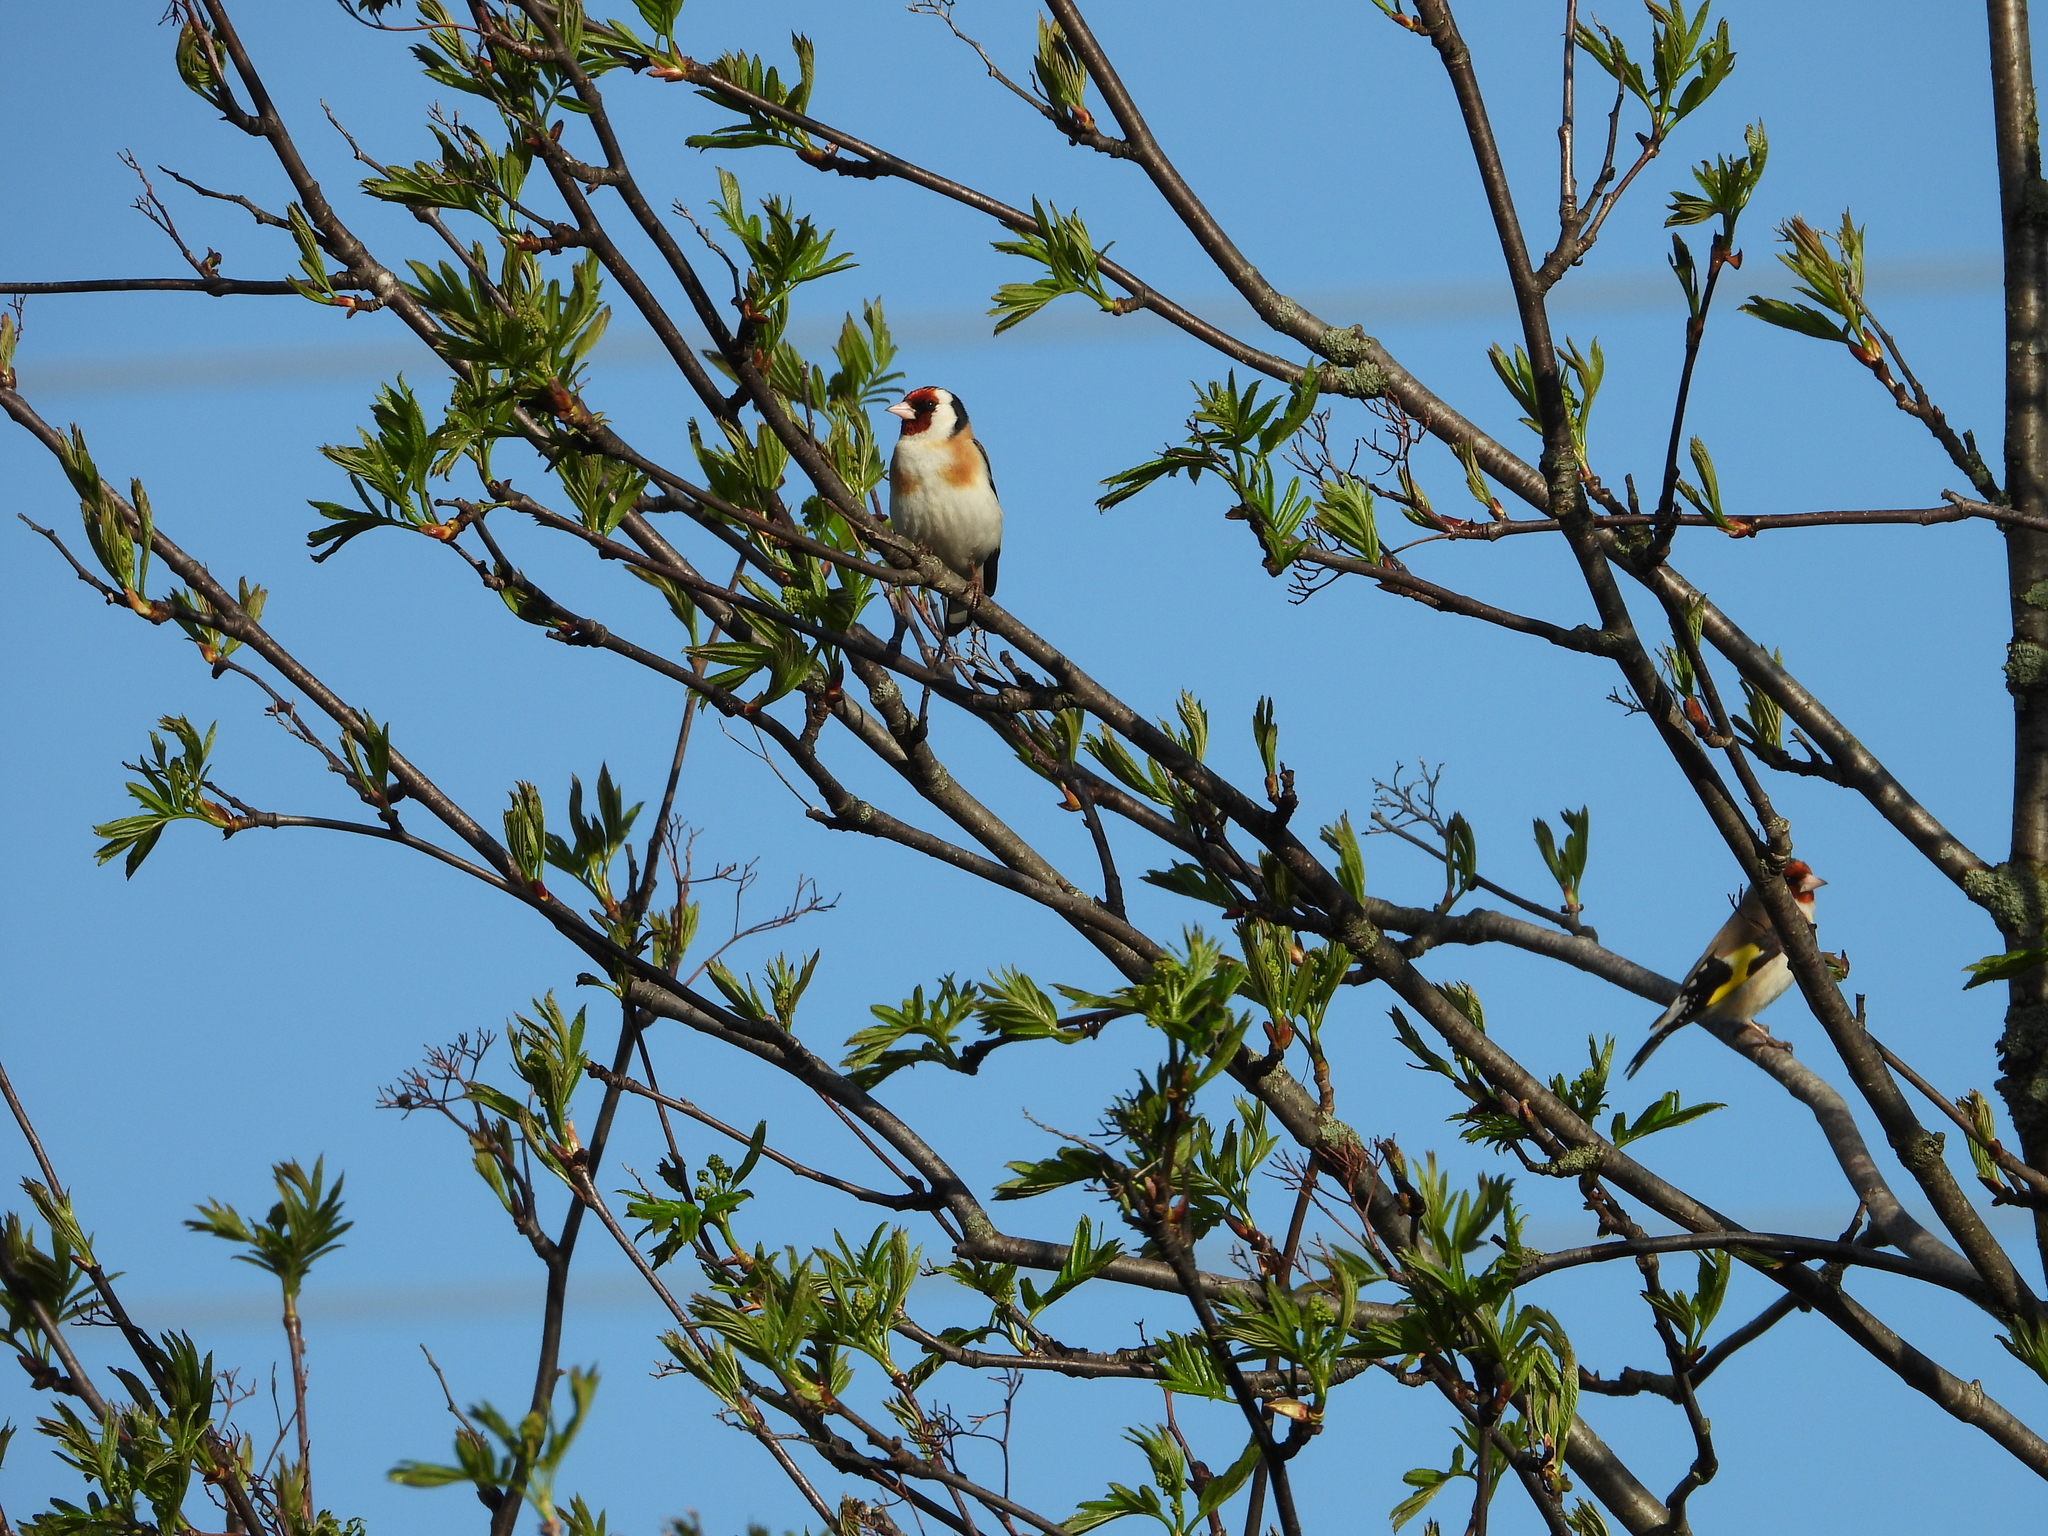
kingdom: Animalia
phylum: Chordata
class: Aves
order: Passeriformes
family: Fringillidae
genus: Carduelis
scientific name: Carduelis carduelis
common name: European goldfinch
